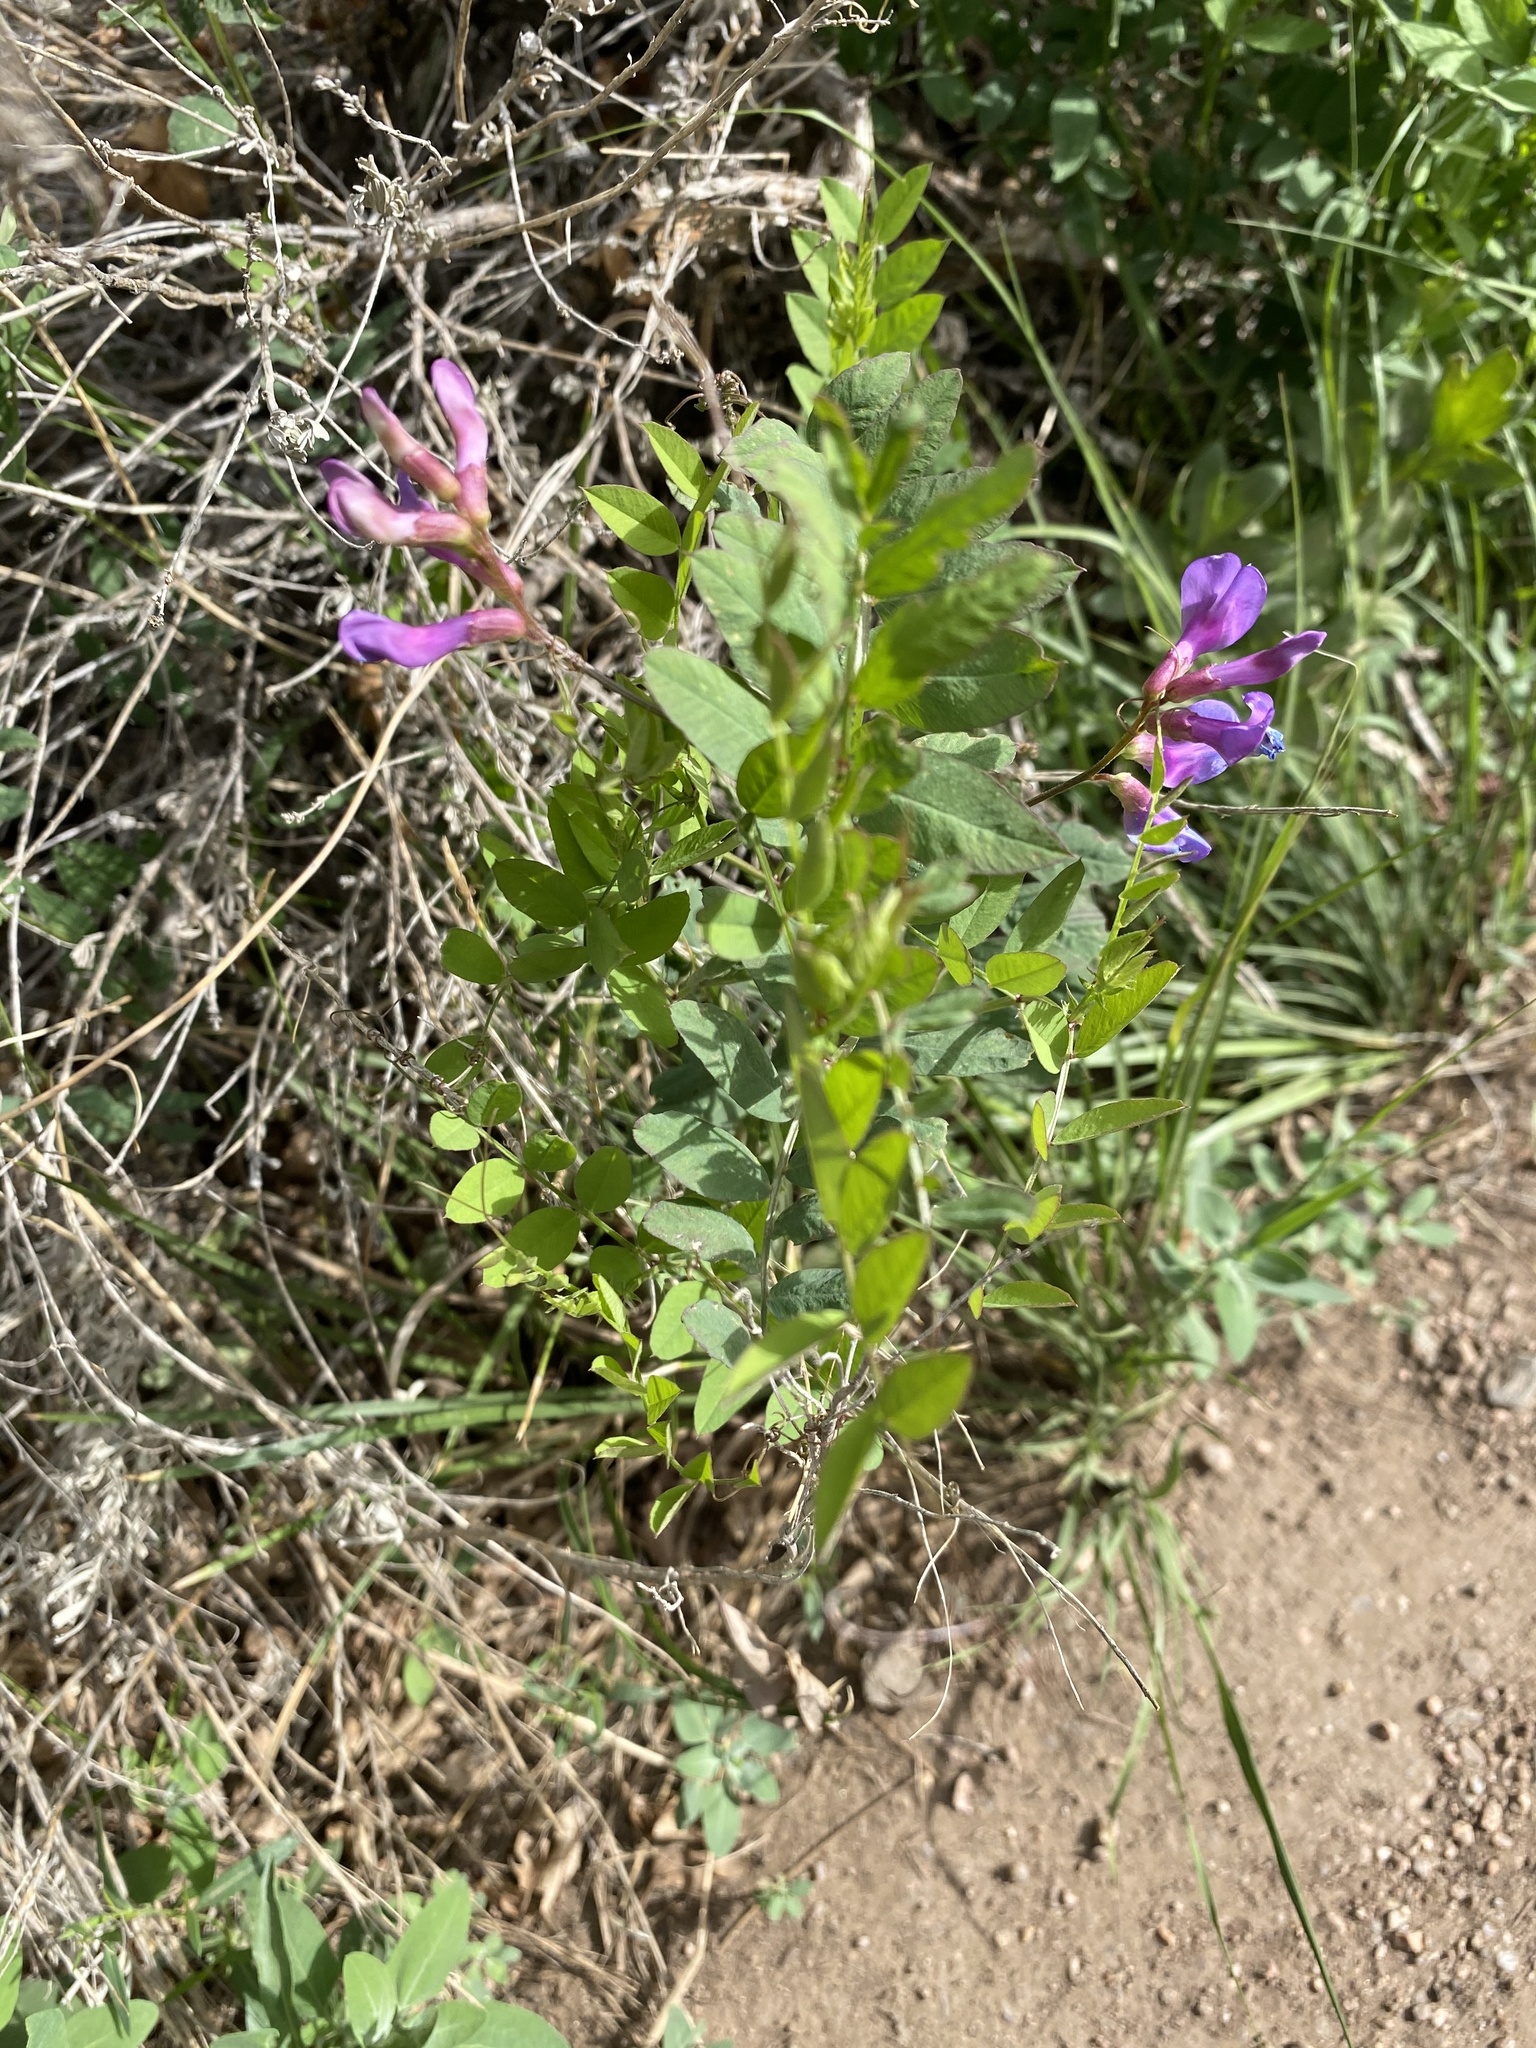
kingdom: Plantae
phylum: Tracheophyta
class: Magnoliopsida
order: Fabales
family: Fabaceae
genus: Vicia
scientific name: Vicia americana
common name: American vetch
